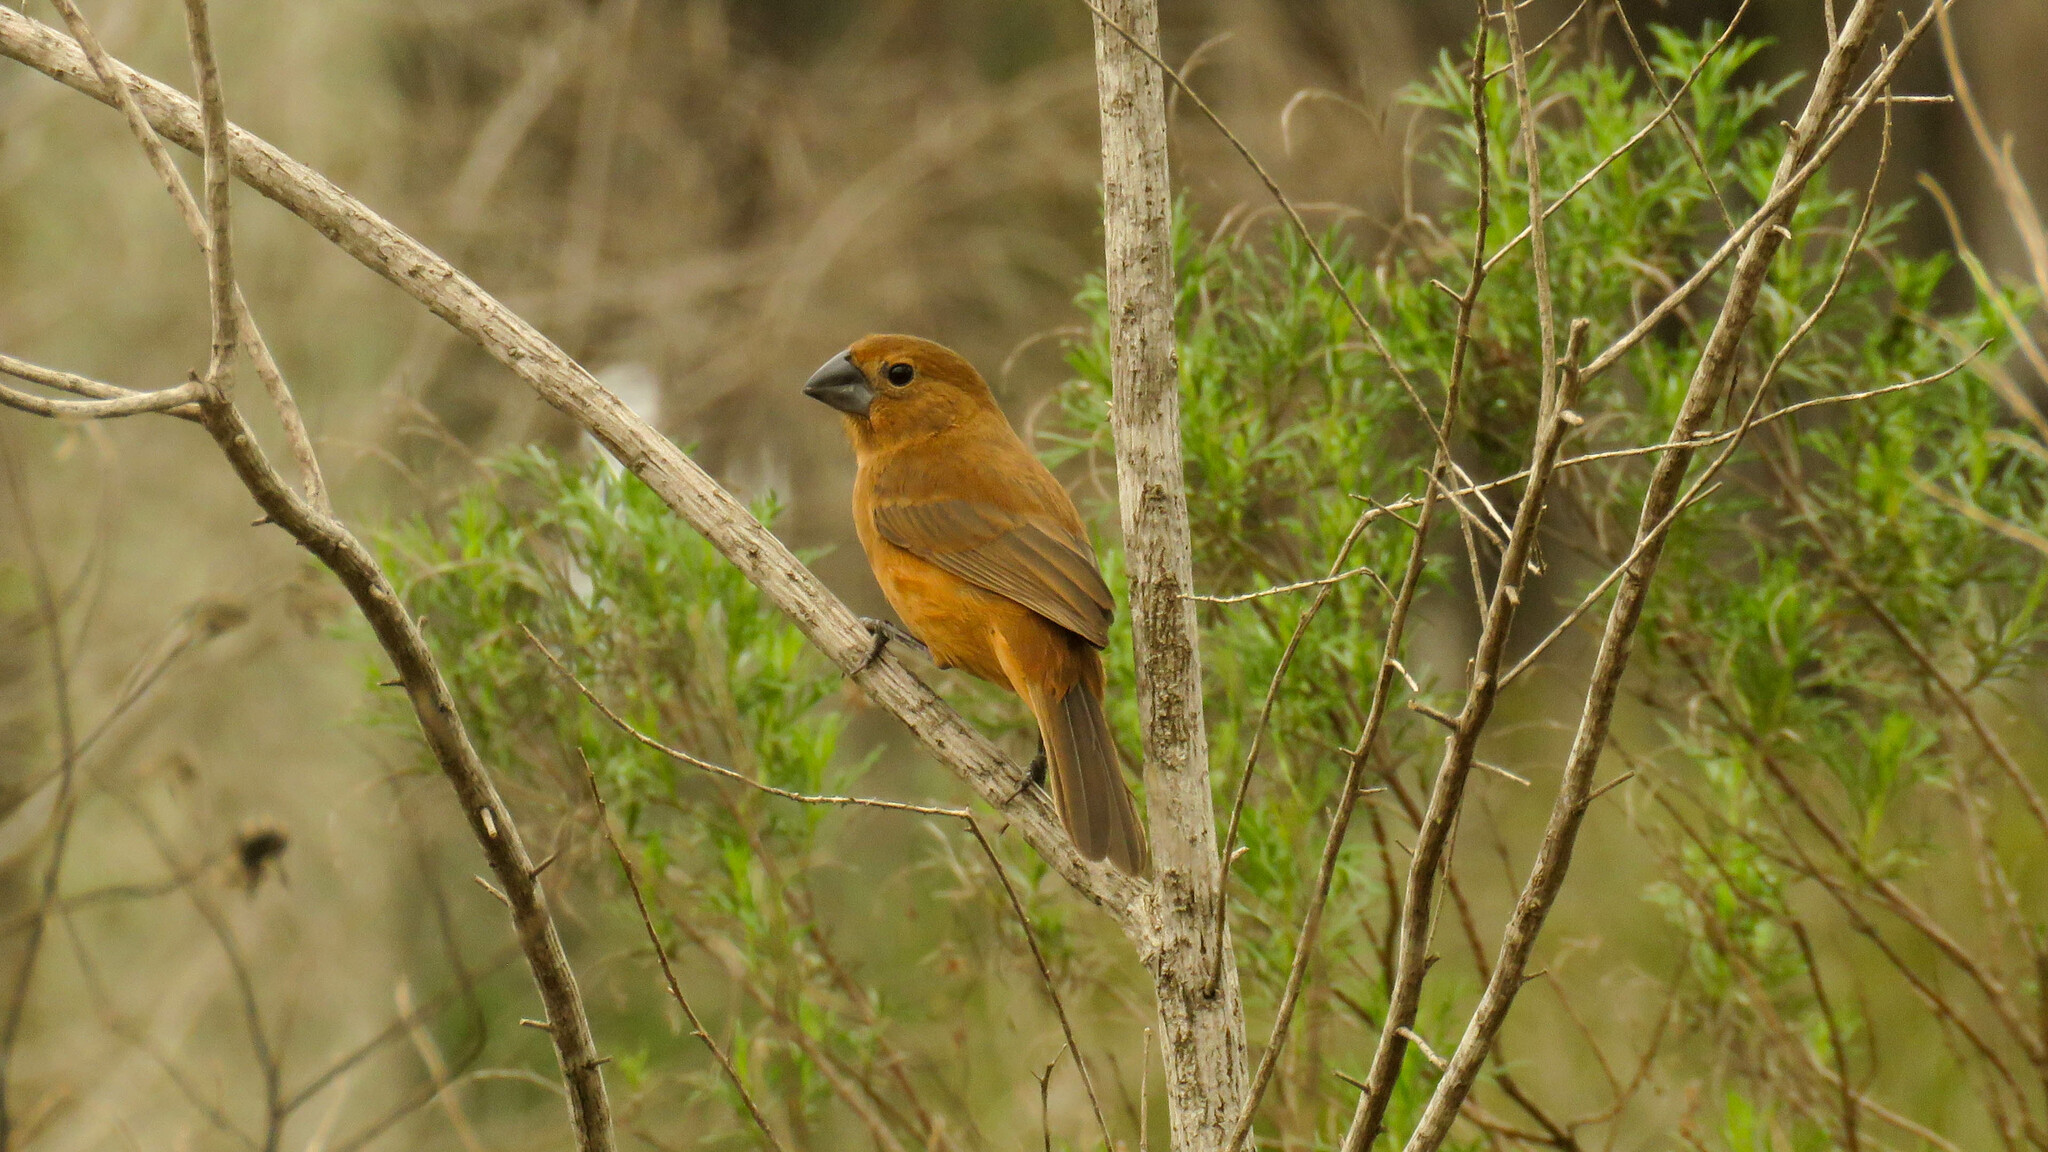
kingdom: Animalia
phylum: Chordata
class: Aves
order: Passeriformes
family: Cardinalidae
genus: Cyanoloxia
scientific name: Cyanoloxia brissonii
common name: Ultramarine grosbeak
